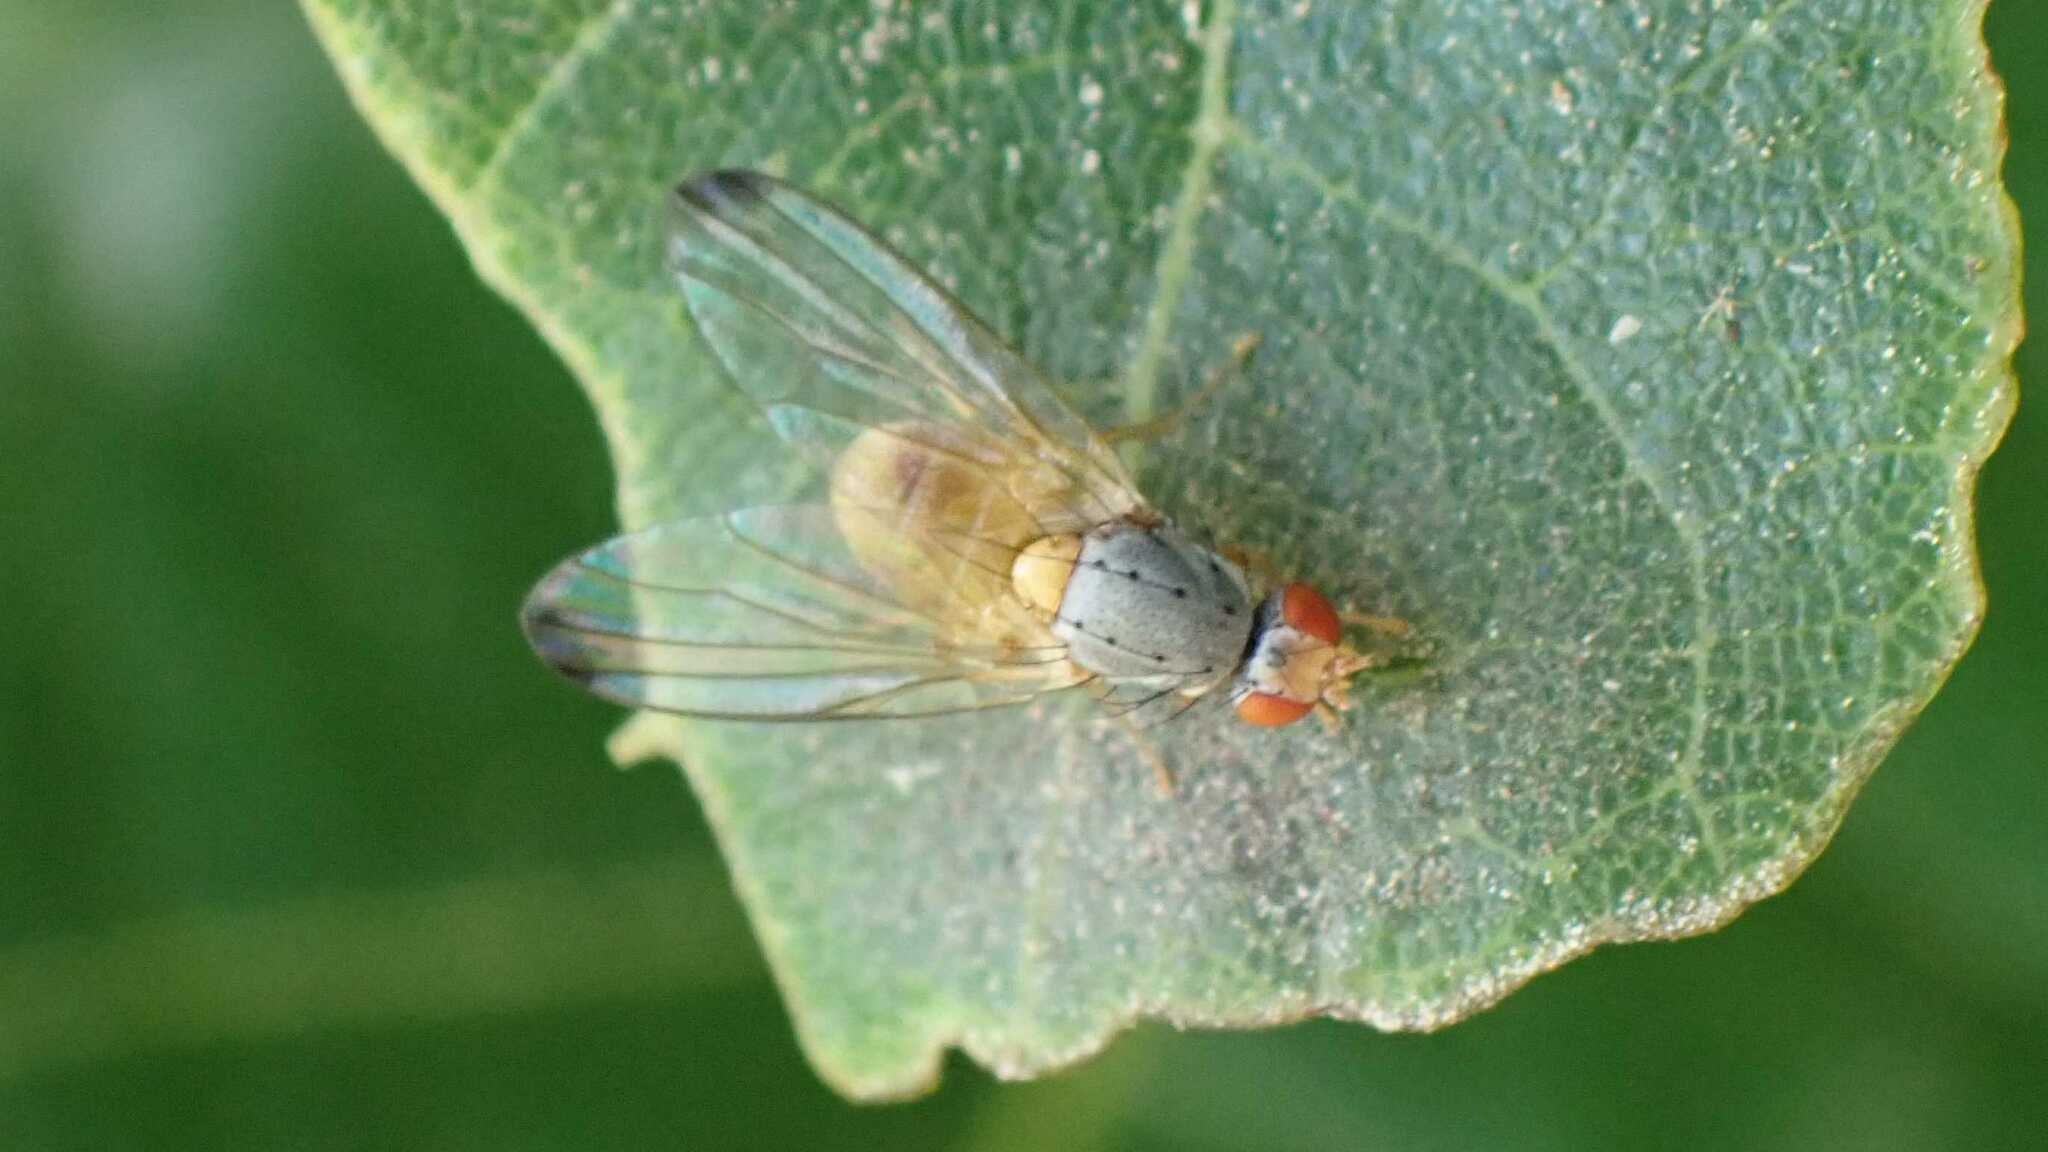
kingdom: Animalia
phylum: Arthropoda
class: Insecta
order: Diptera
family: Pallopteridae
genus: Palloptera
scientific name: Palloptera
